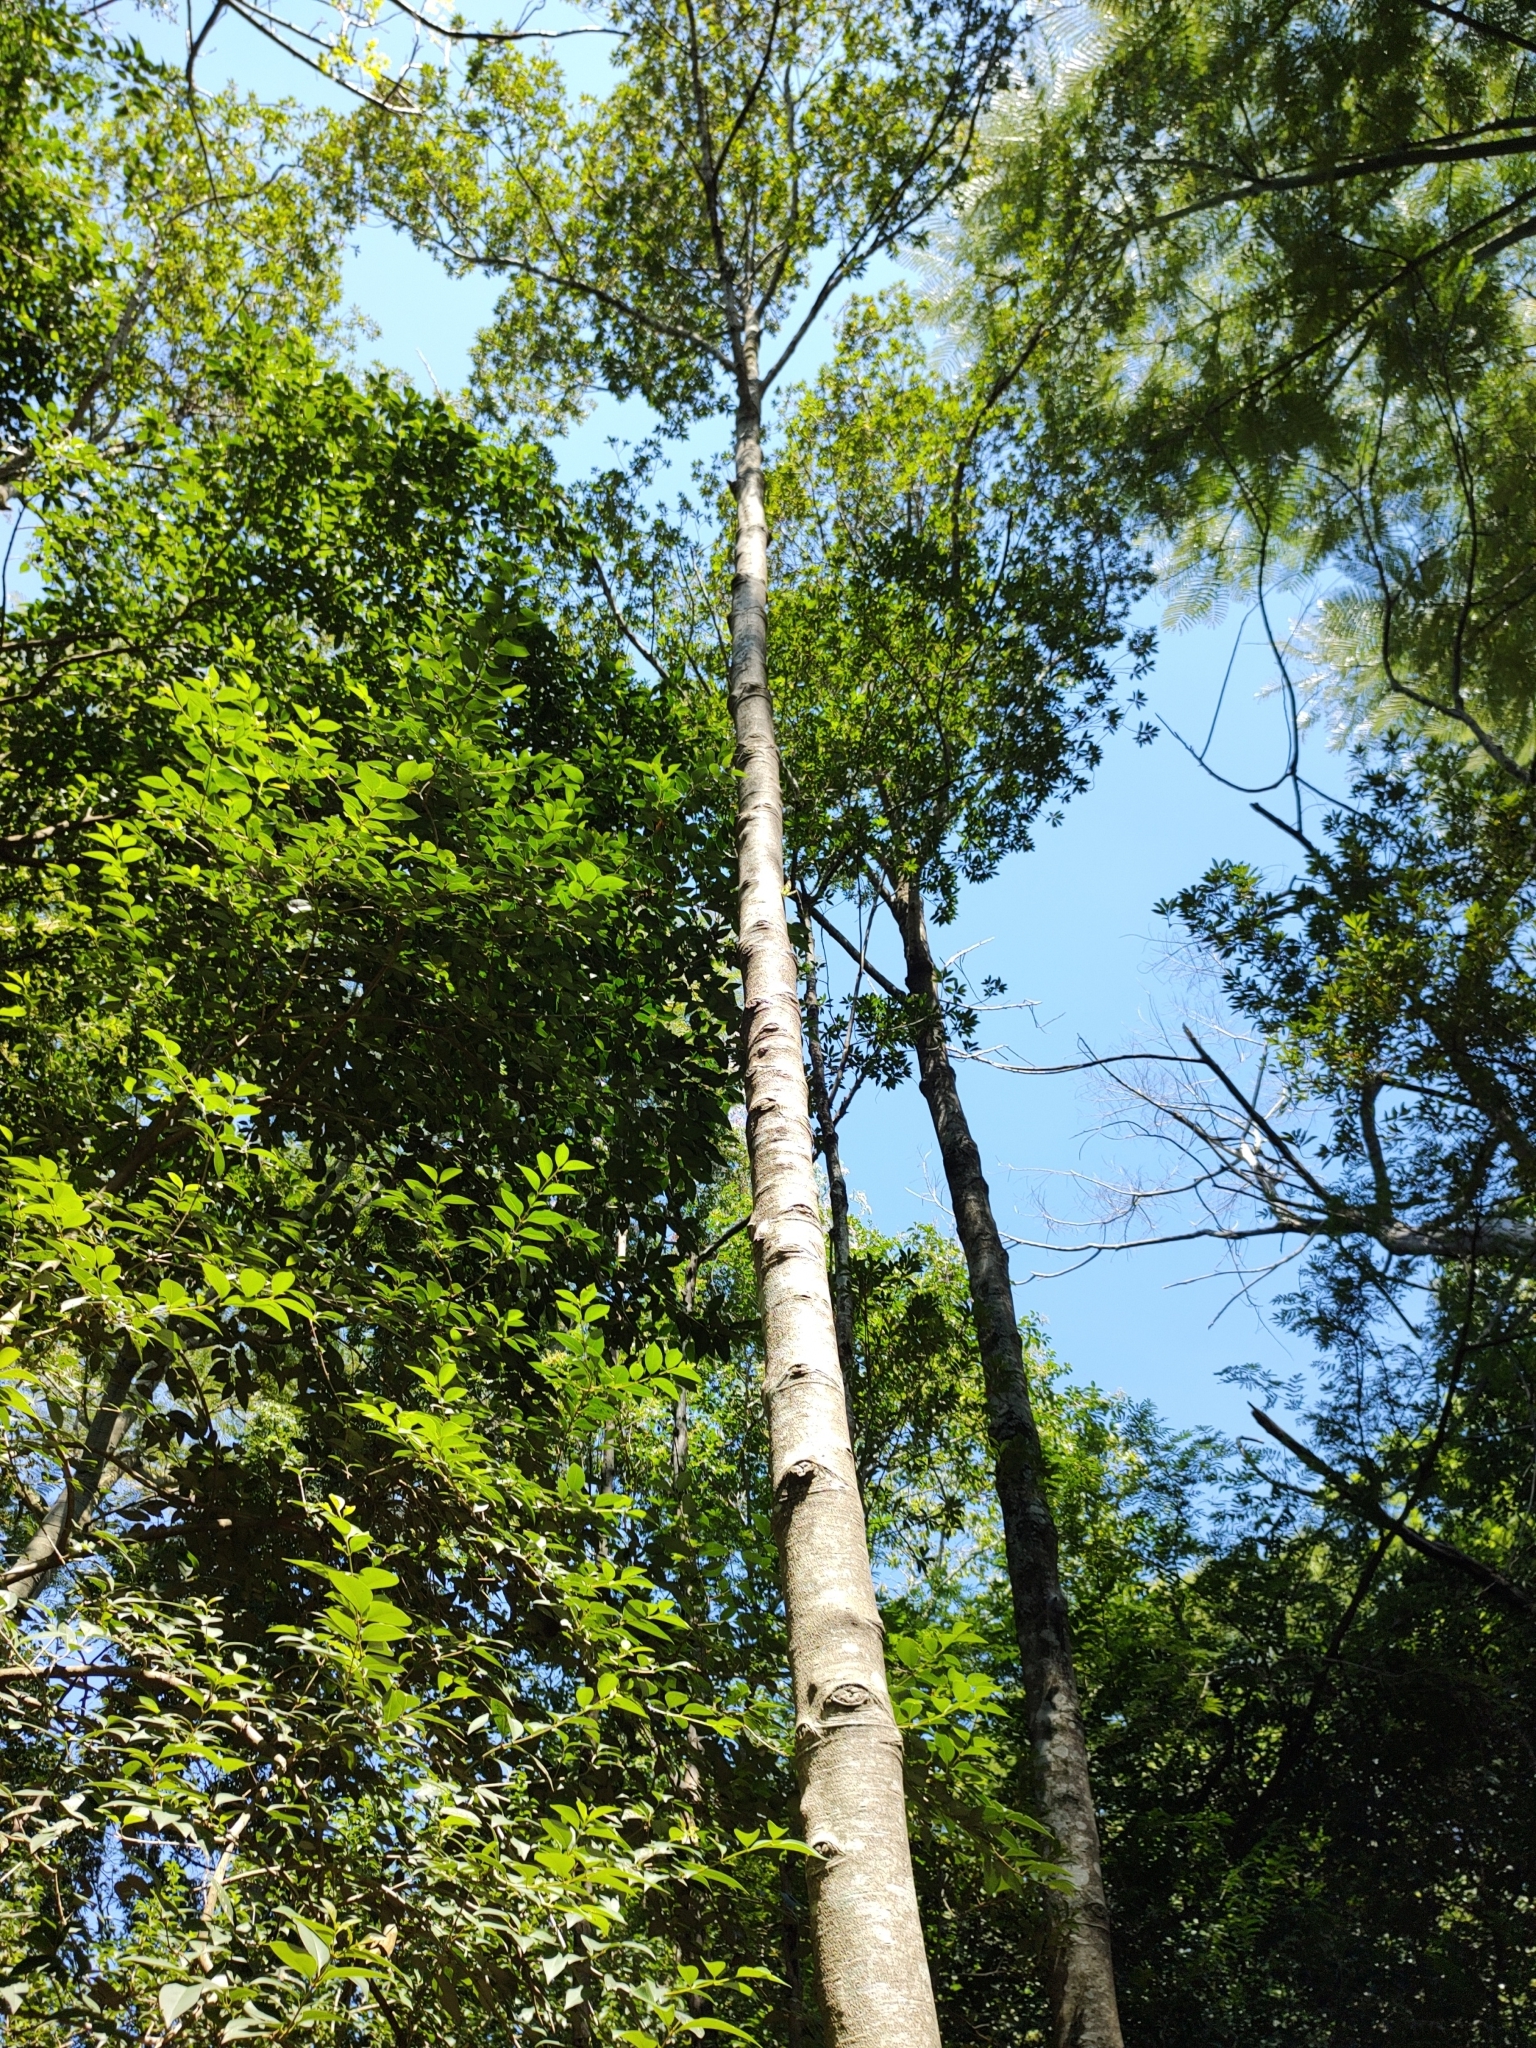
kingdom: Animalia
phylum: Arthropoda
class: Insecta
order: Lepidoptera
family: Nymphalidae
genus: Siproeta
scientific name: Siproeta stelenes
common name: Malachite
